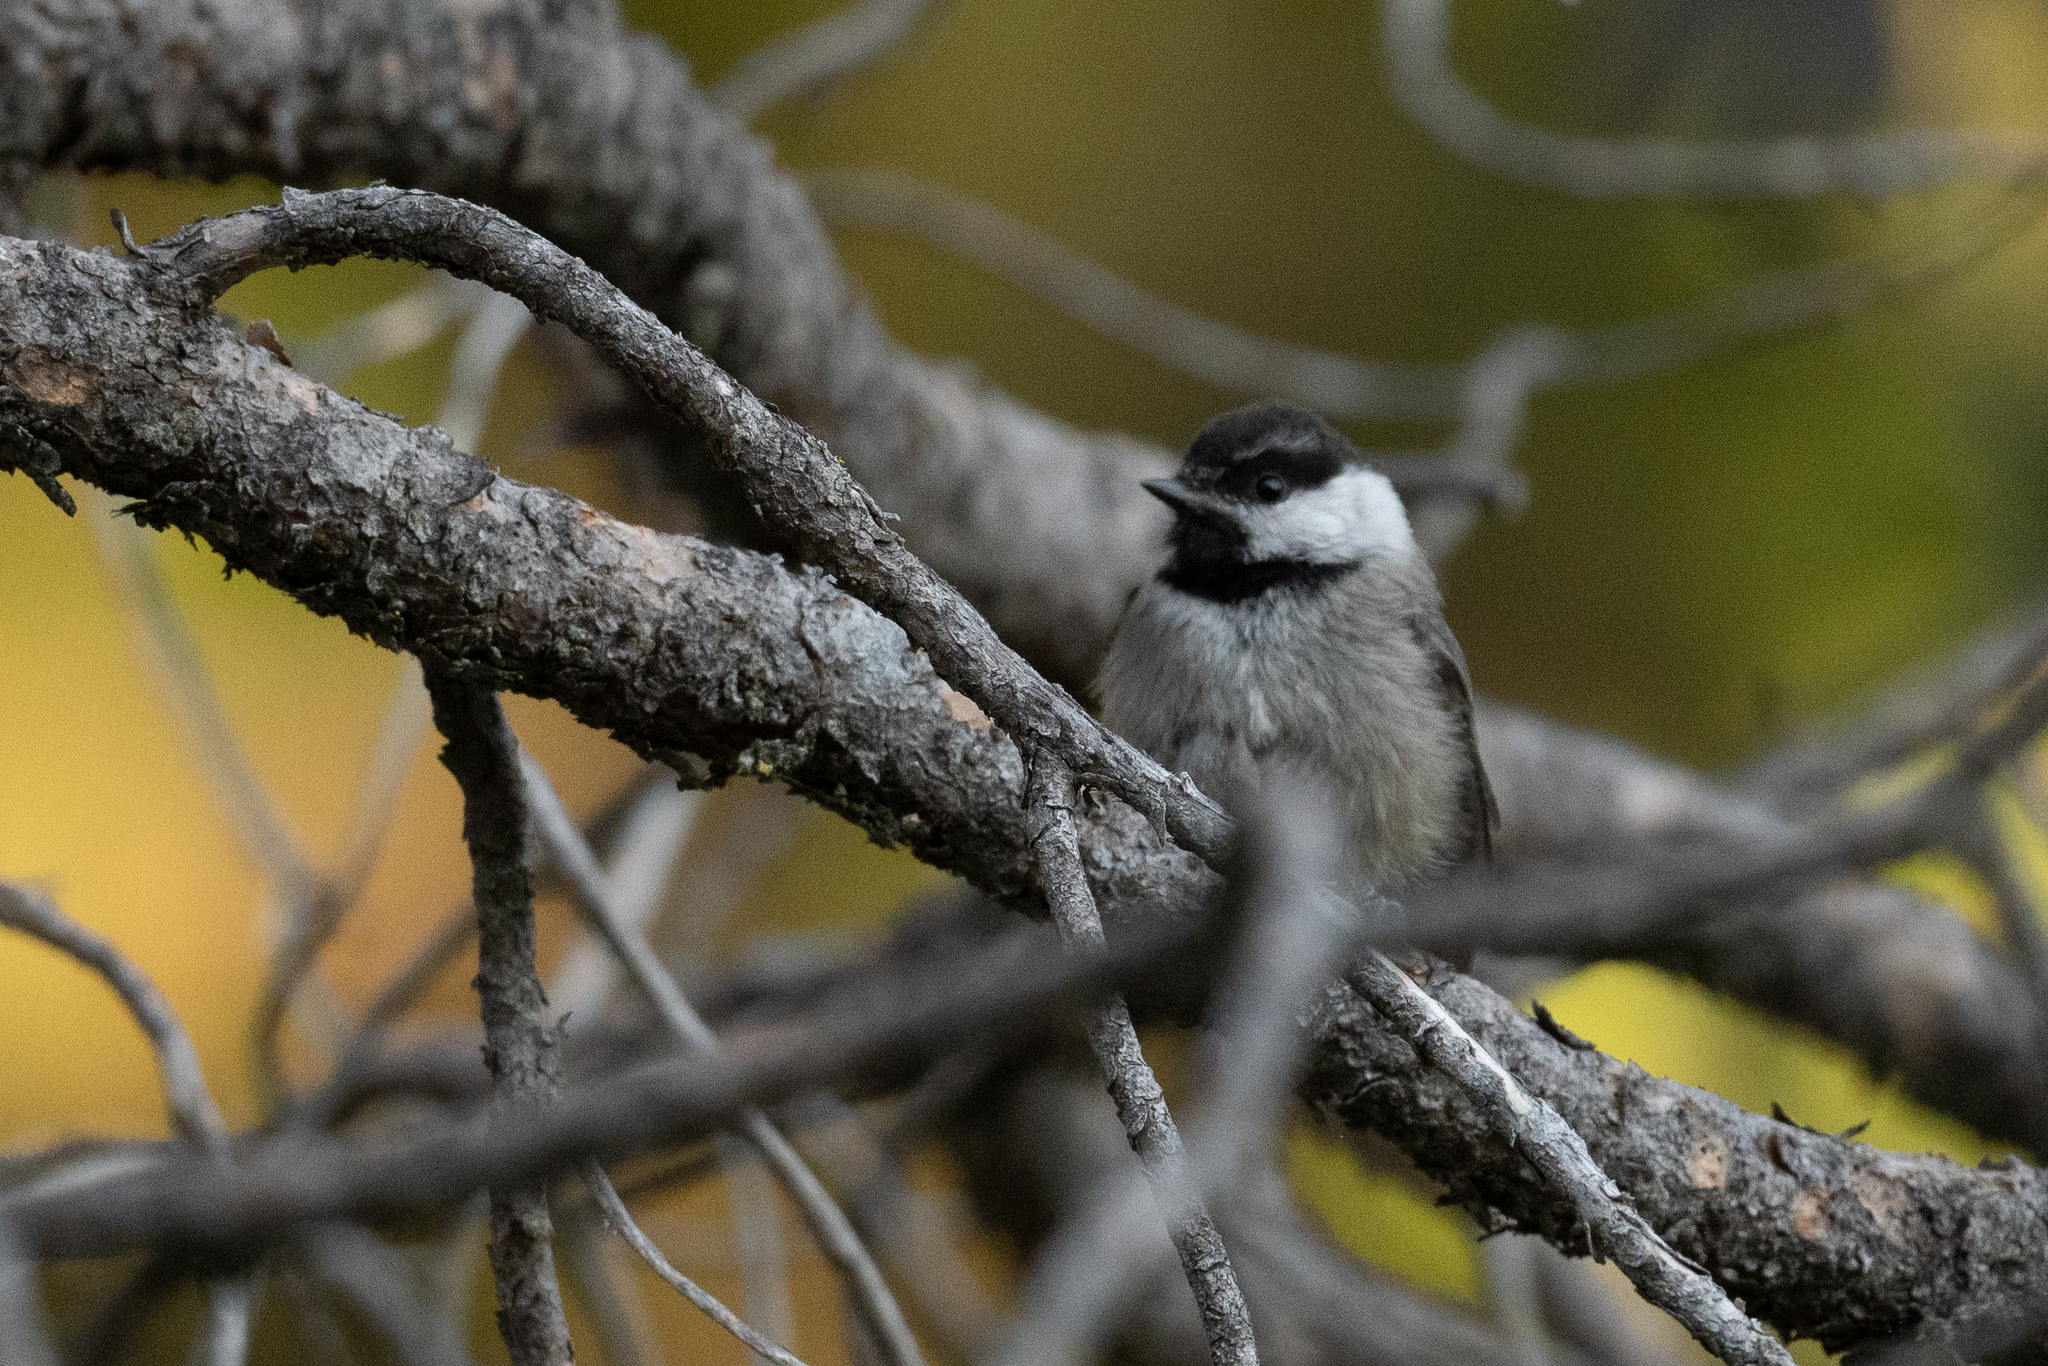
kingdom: Animalia
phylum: Chordata
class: Aves
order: Passeriformes
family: Paridae
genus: Poecile
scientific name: Poecile gambeli
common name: Mountain chickadee
